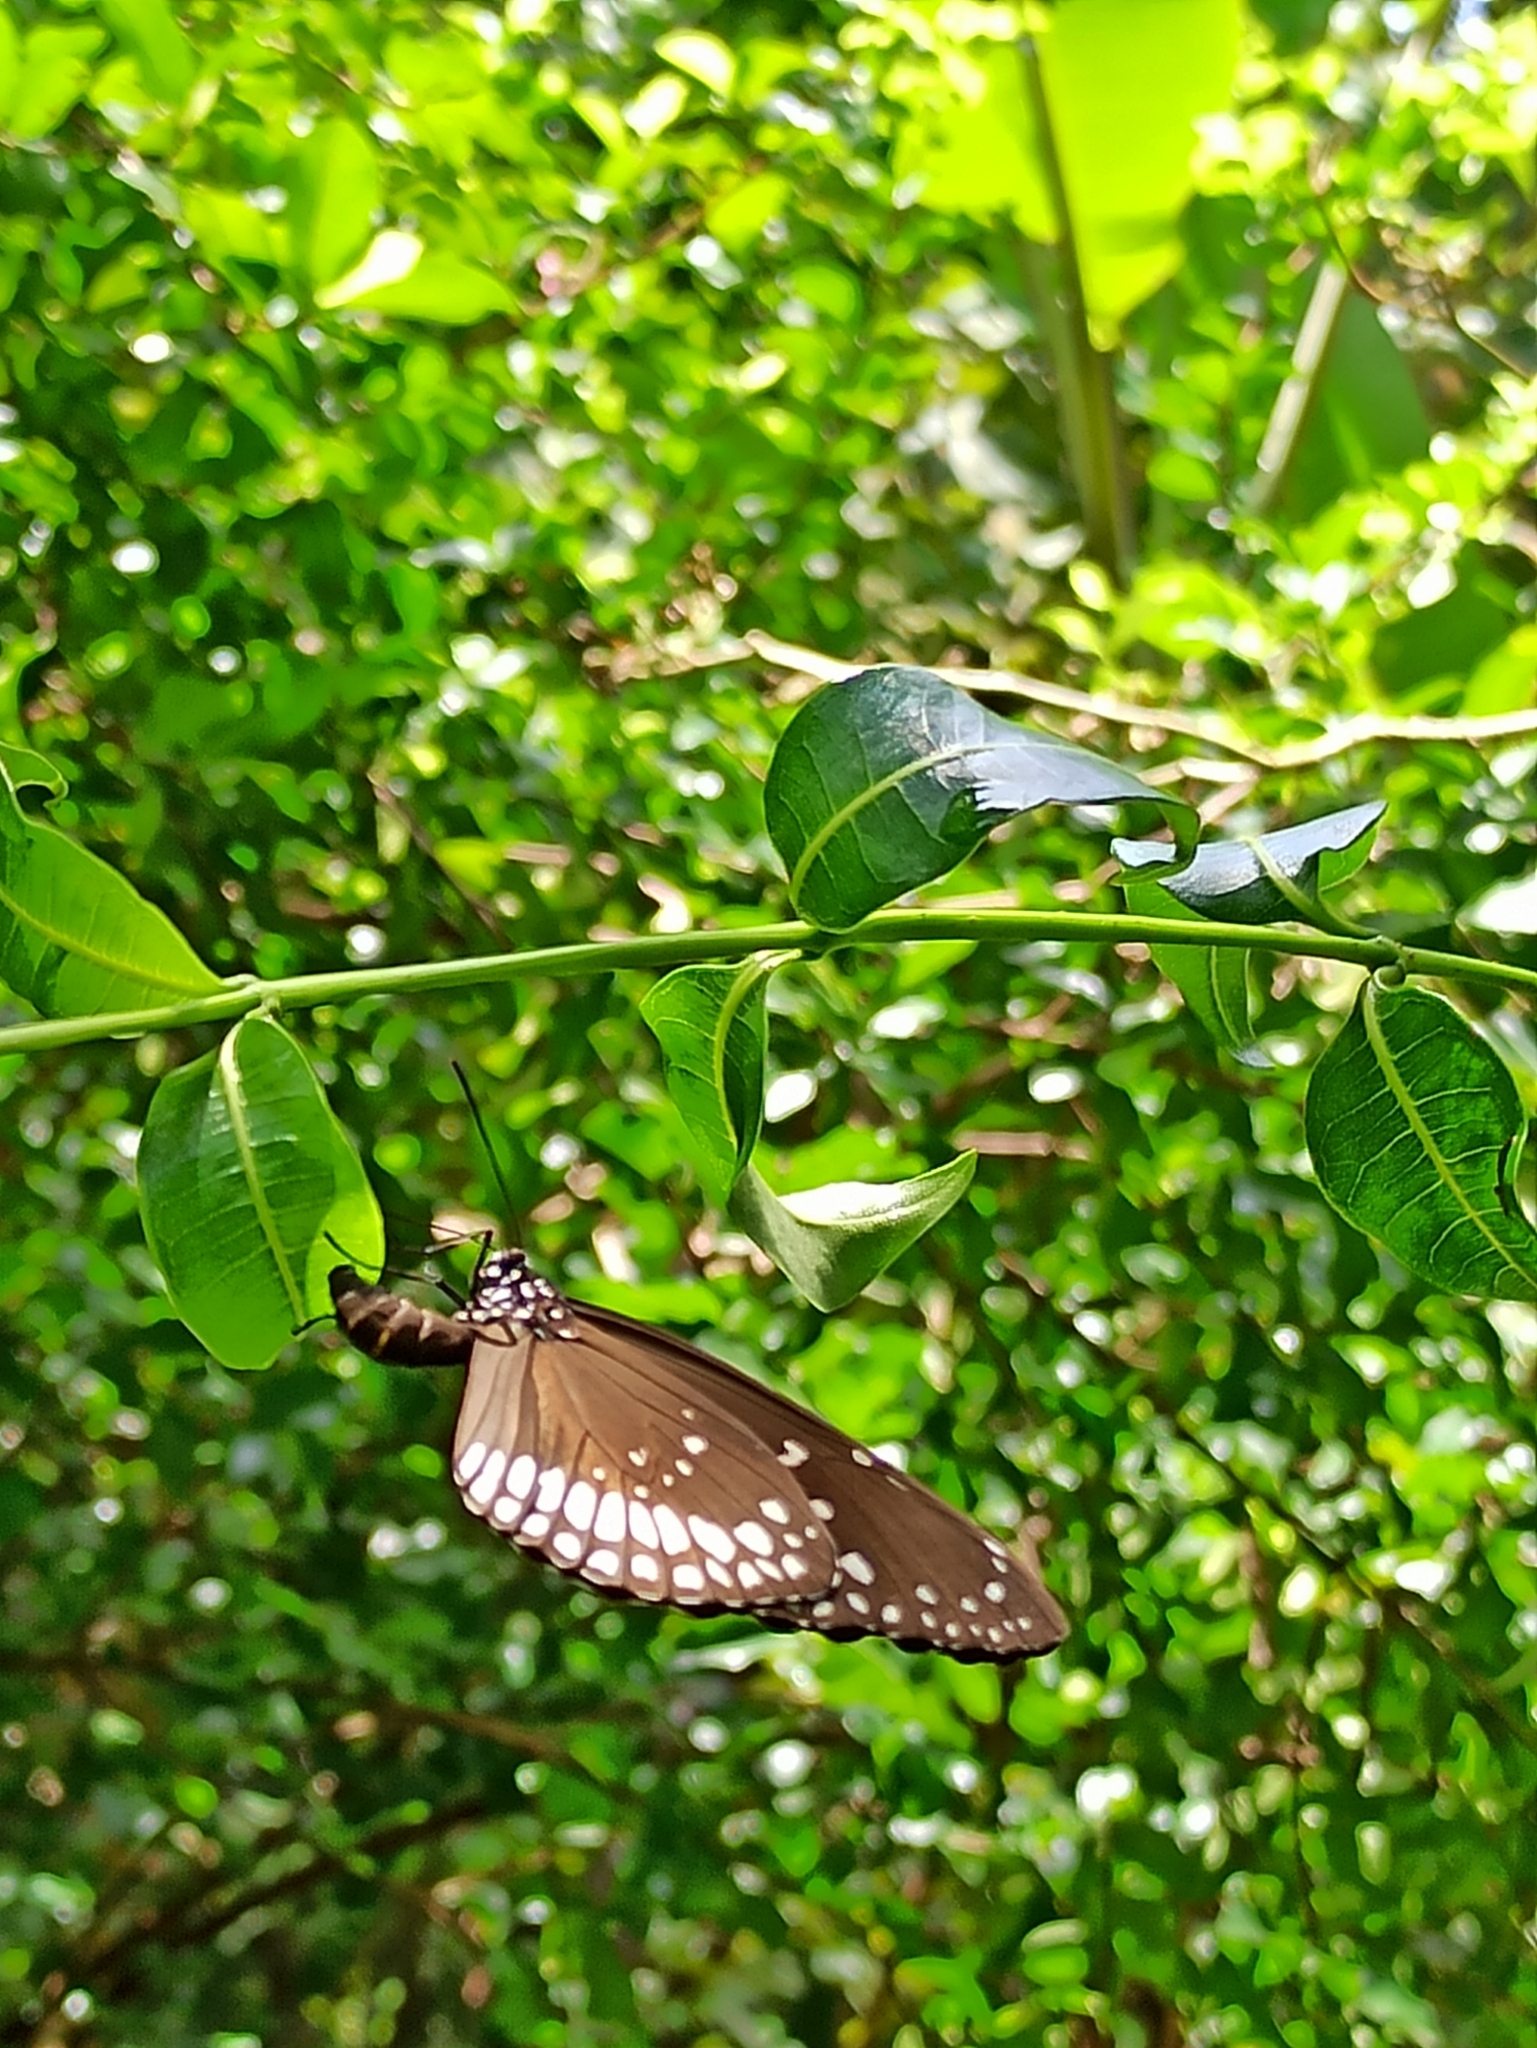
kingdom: Animalia
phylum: Arthropoda
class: Insecta
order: Lepidoptera
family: Nymphalidae
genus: Euploea
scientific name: Euploea core
